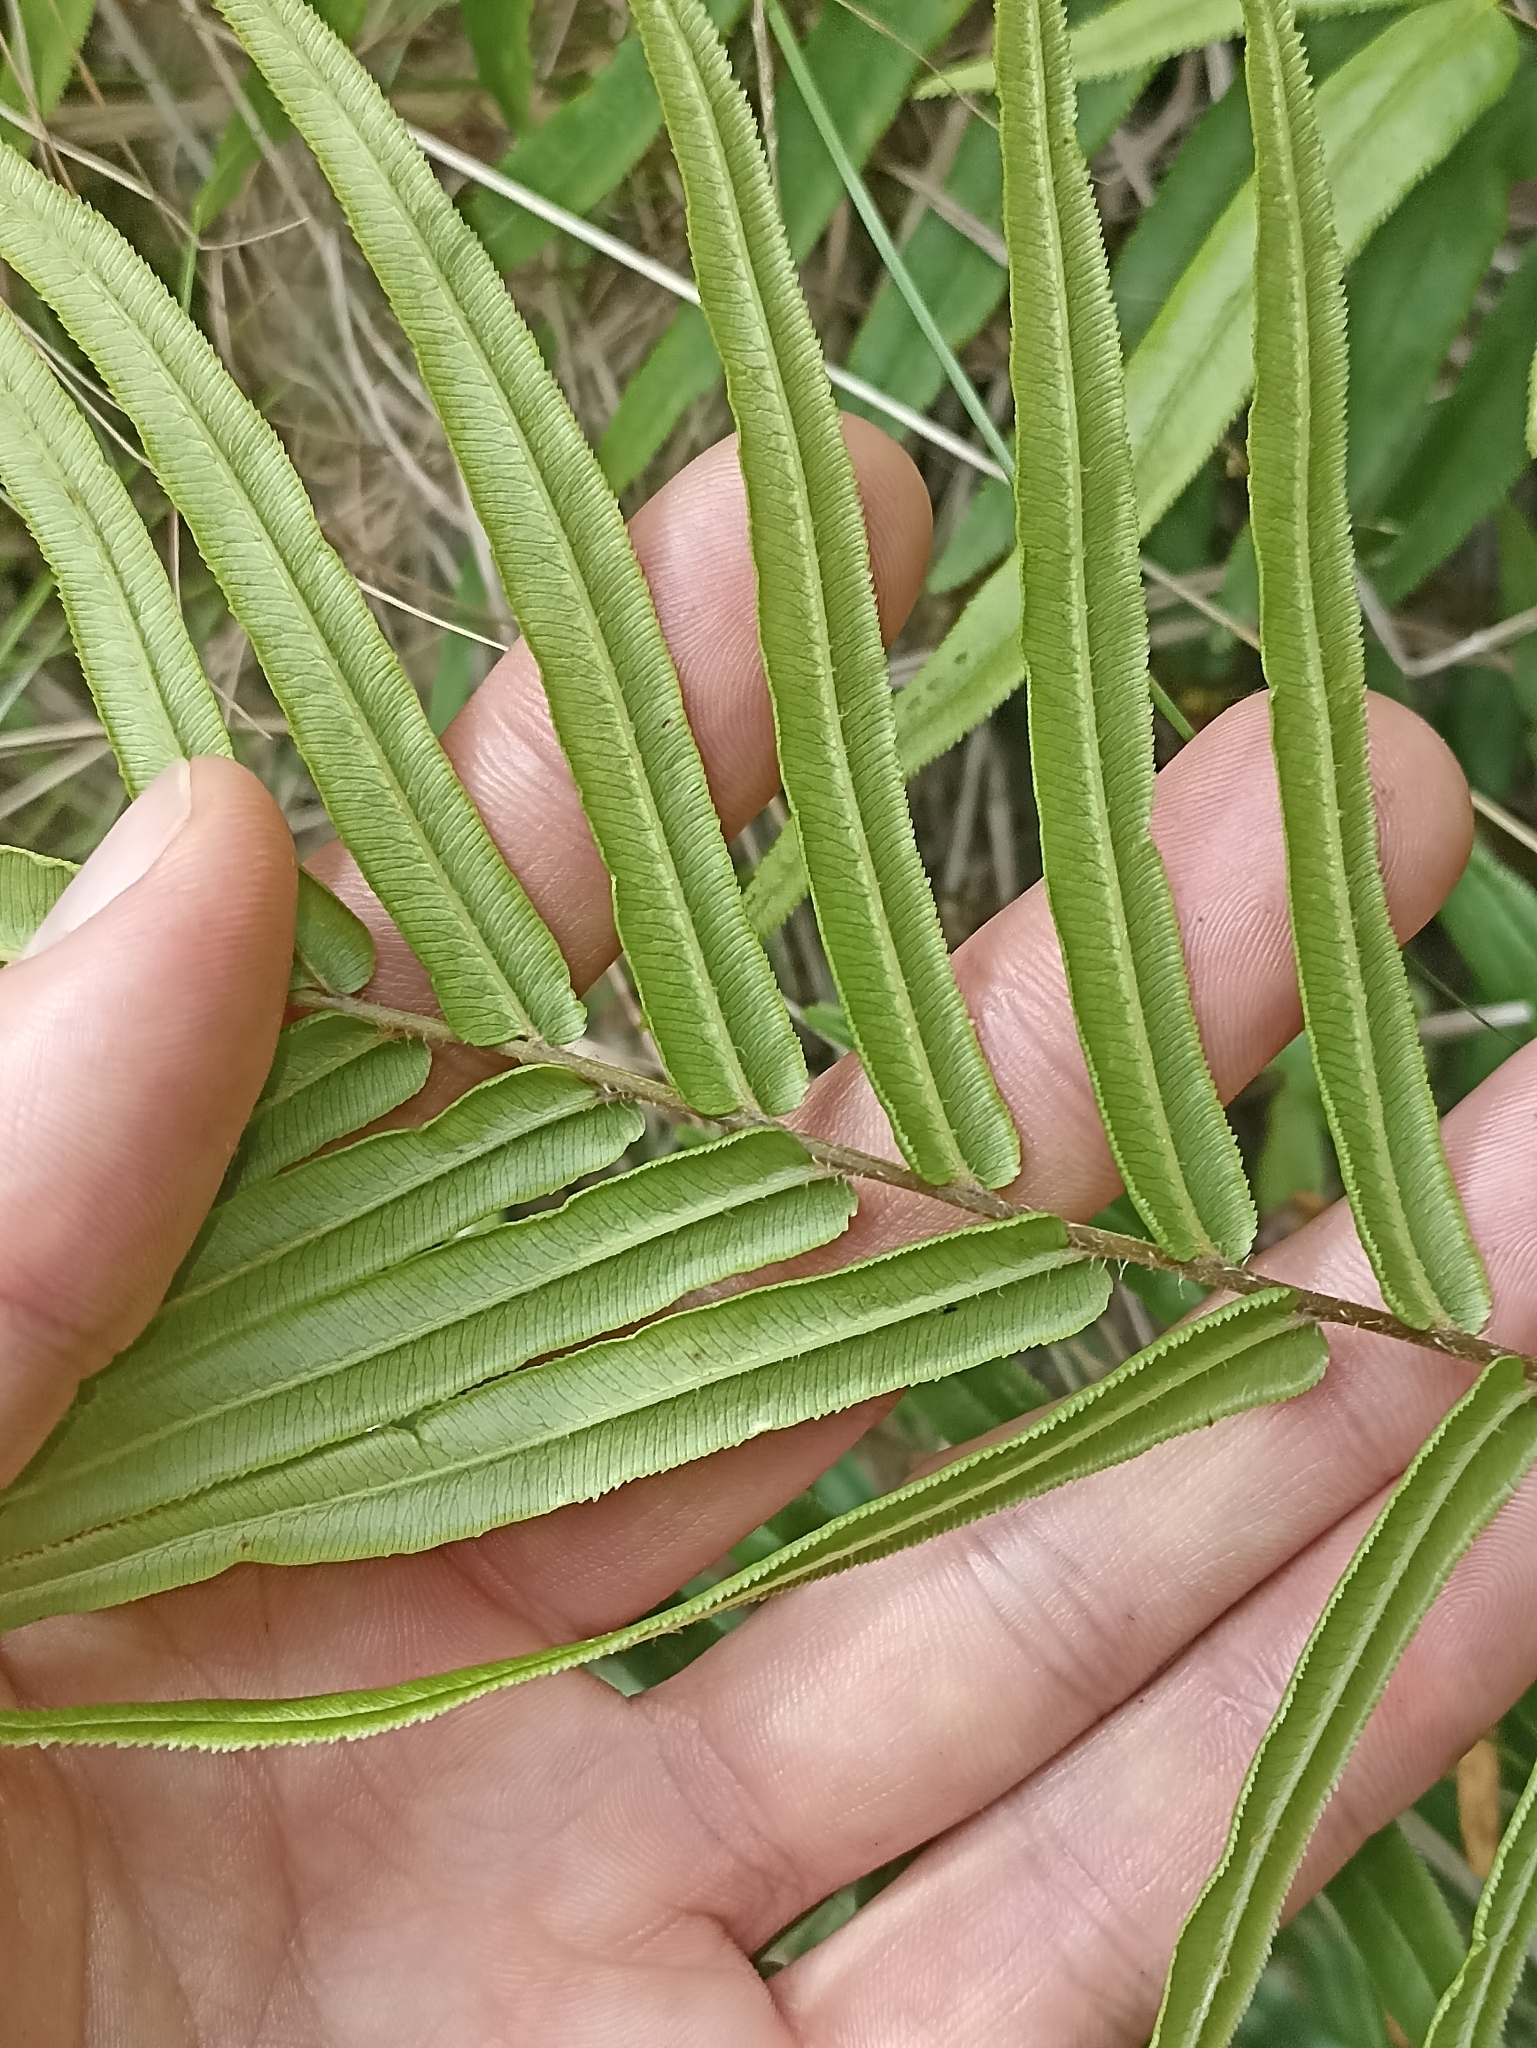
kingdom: Plantae
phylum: Tracheophyta
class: Polypodiopsida
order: Polypodiales
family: Pteridaceae
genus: Pteris
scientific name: Pteris vittata
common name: Ladder brake
